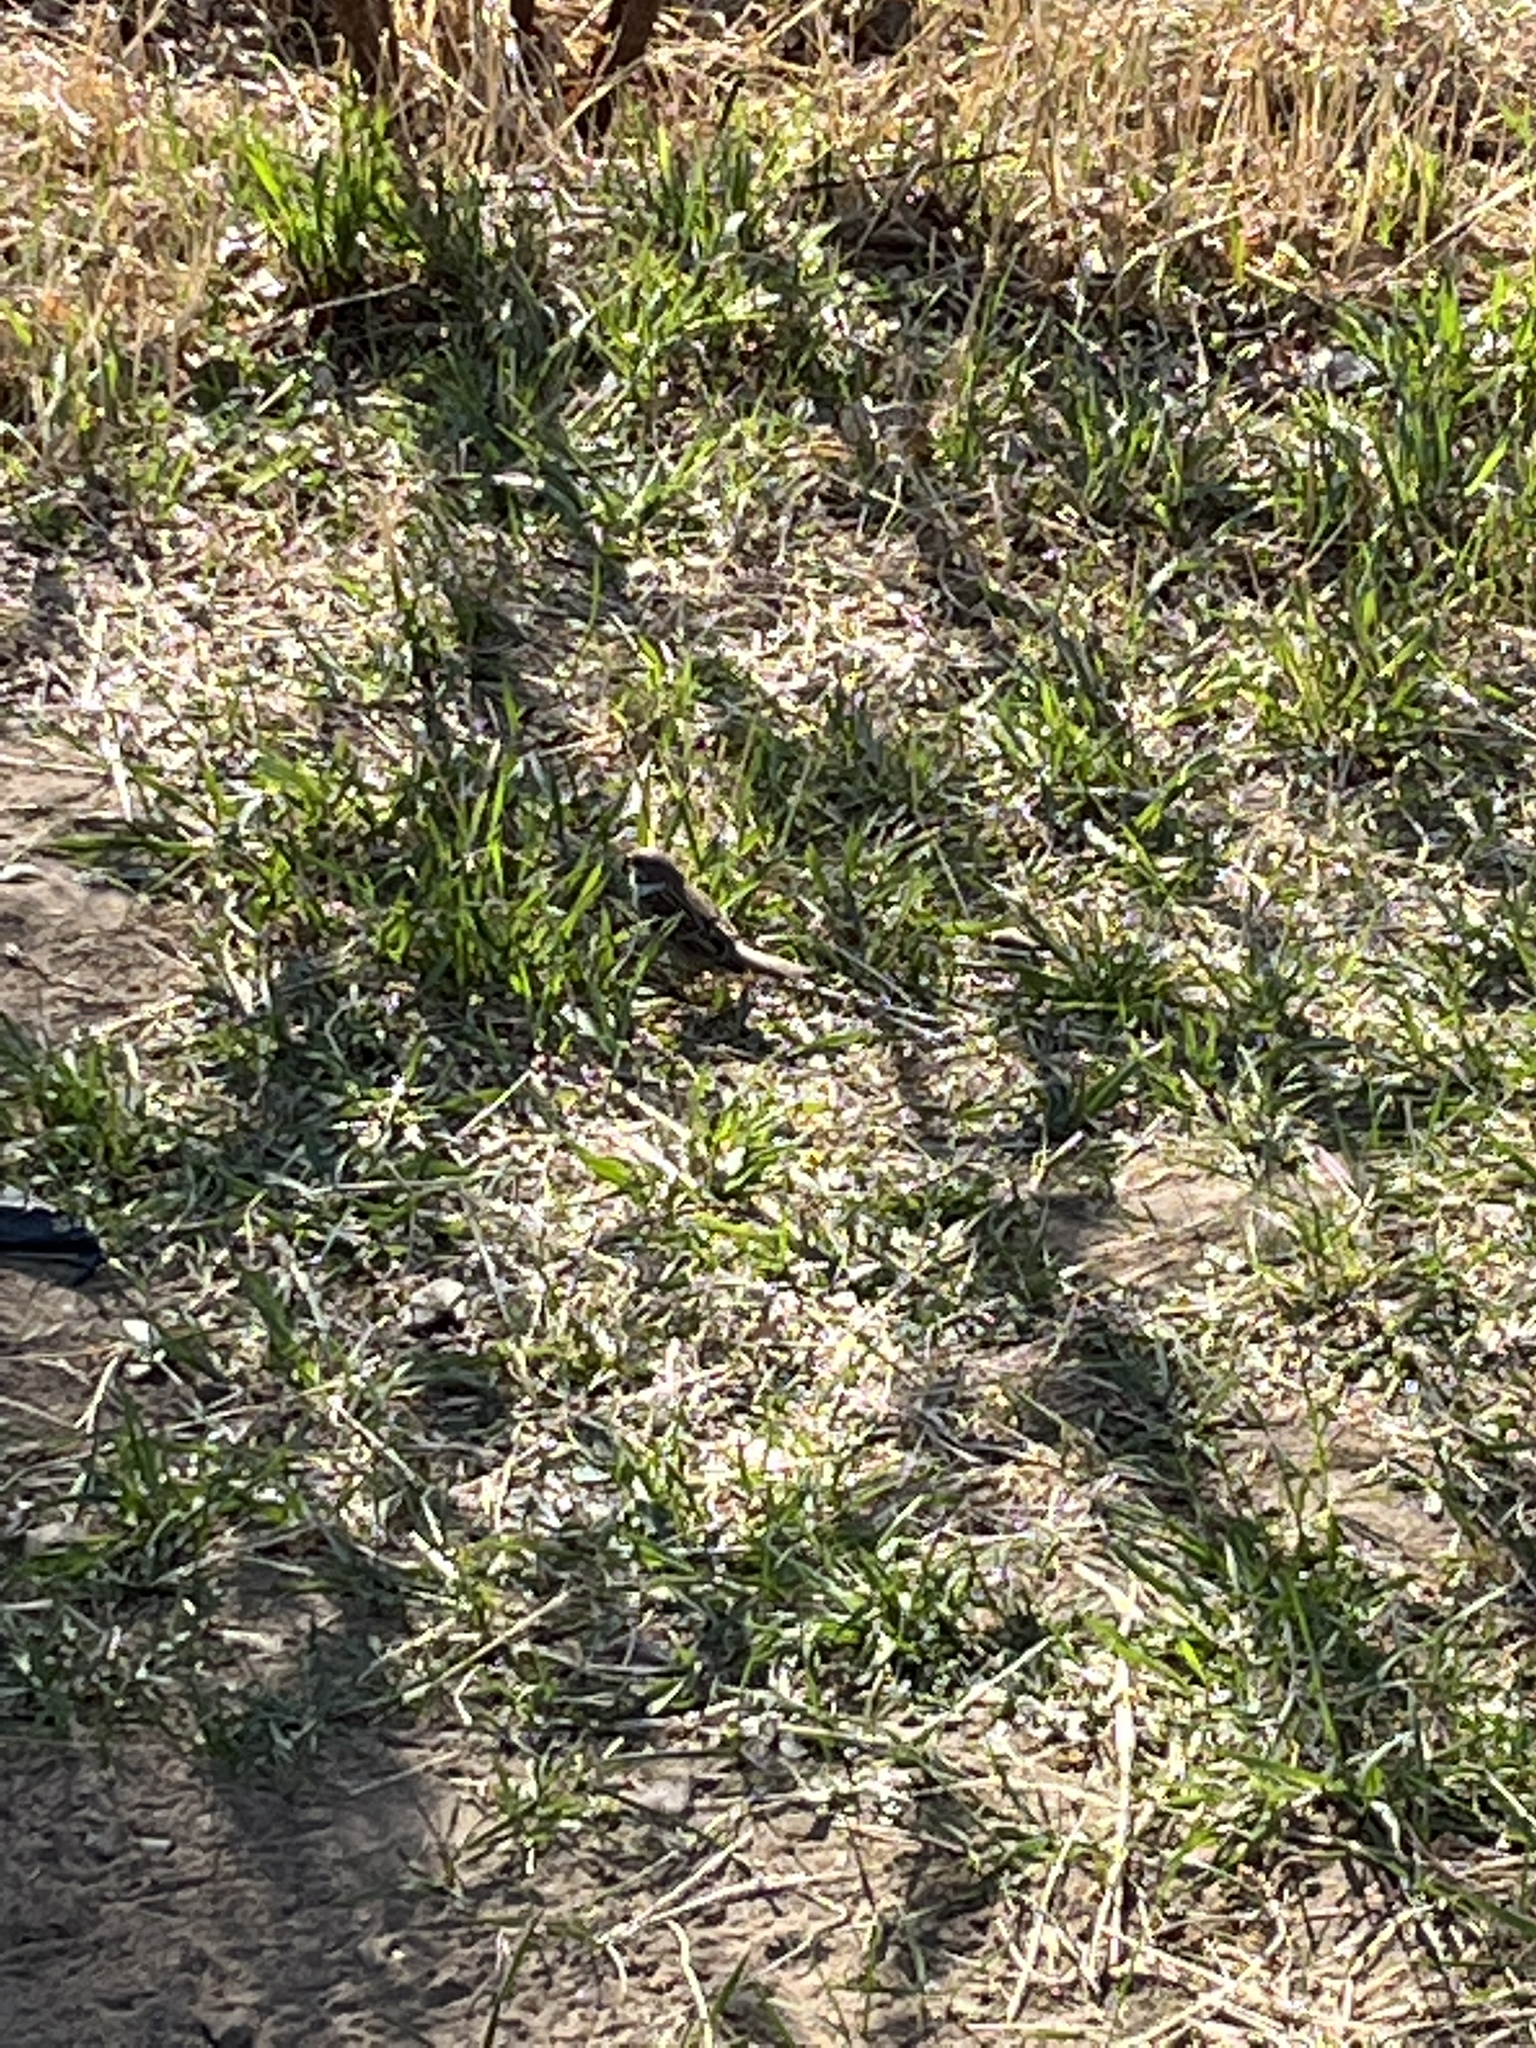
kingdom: Animalia
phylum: Chordata
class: Aves
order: Passeriformes
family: Passeridae
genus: Passer
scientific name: Passer montanus
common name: Eurasian tree sparrow
